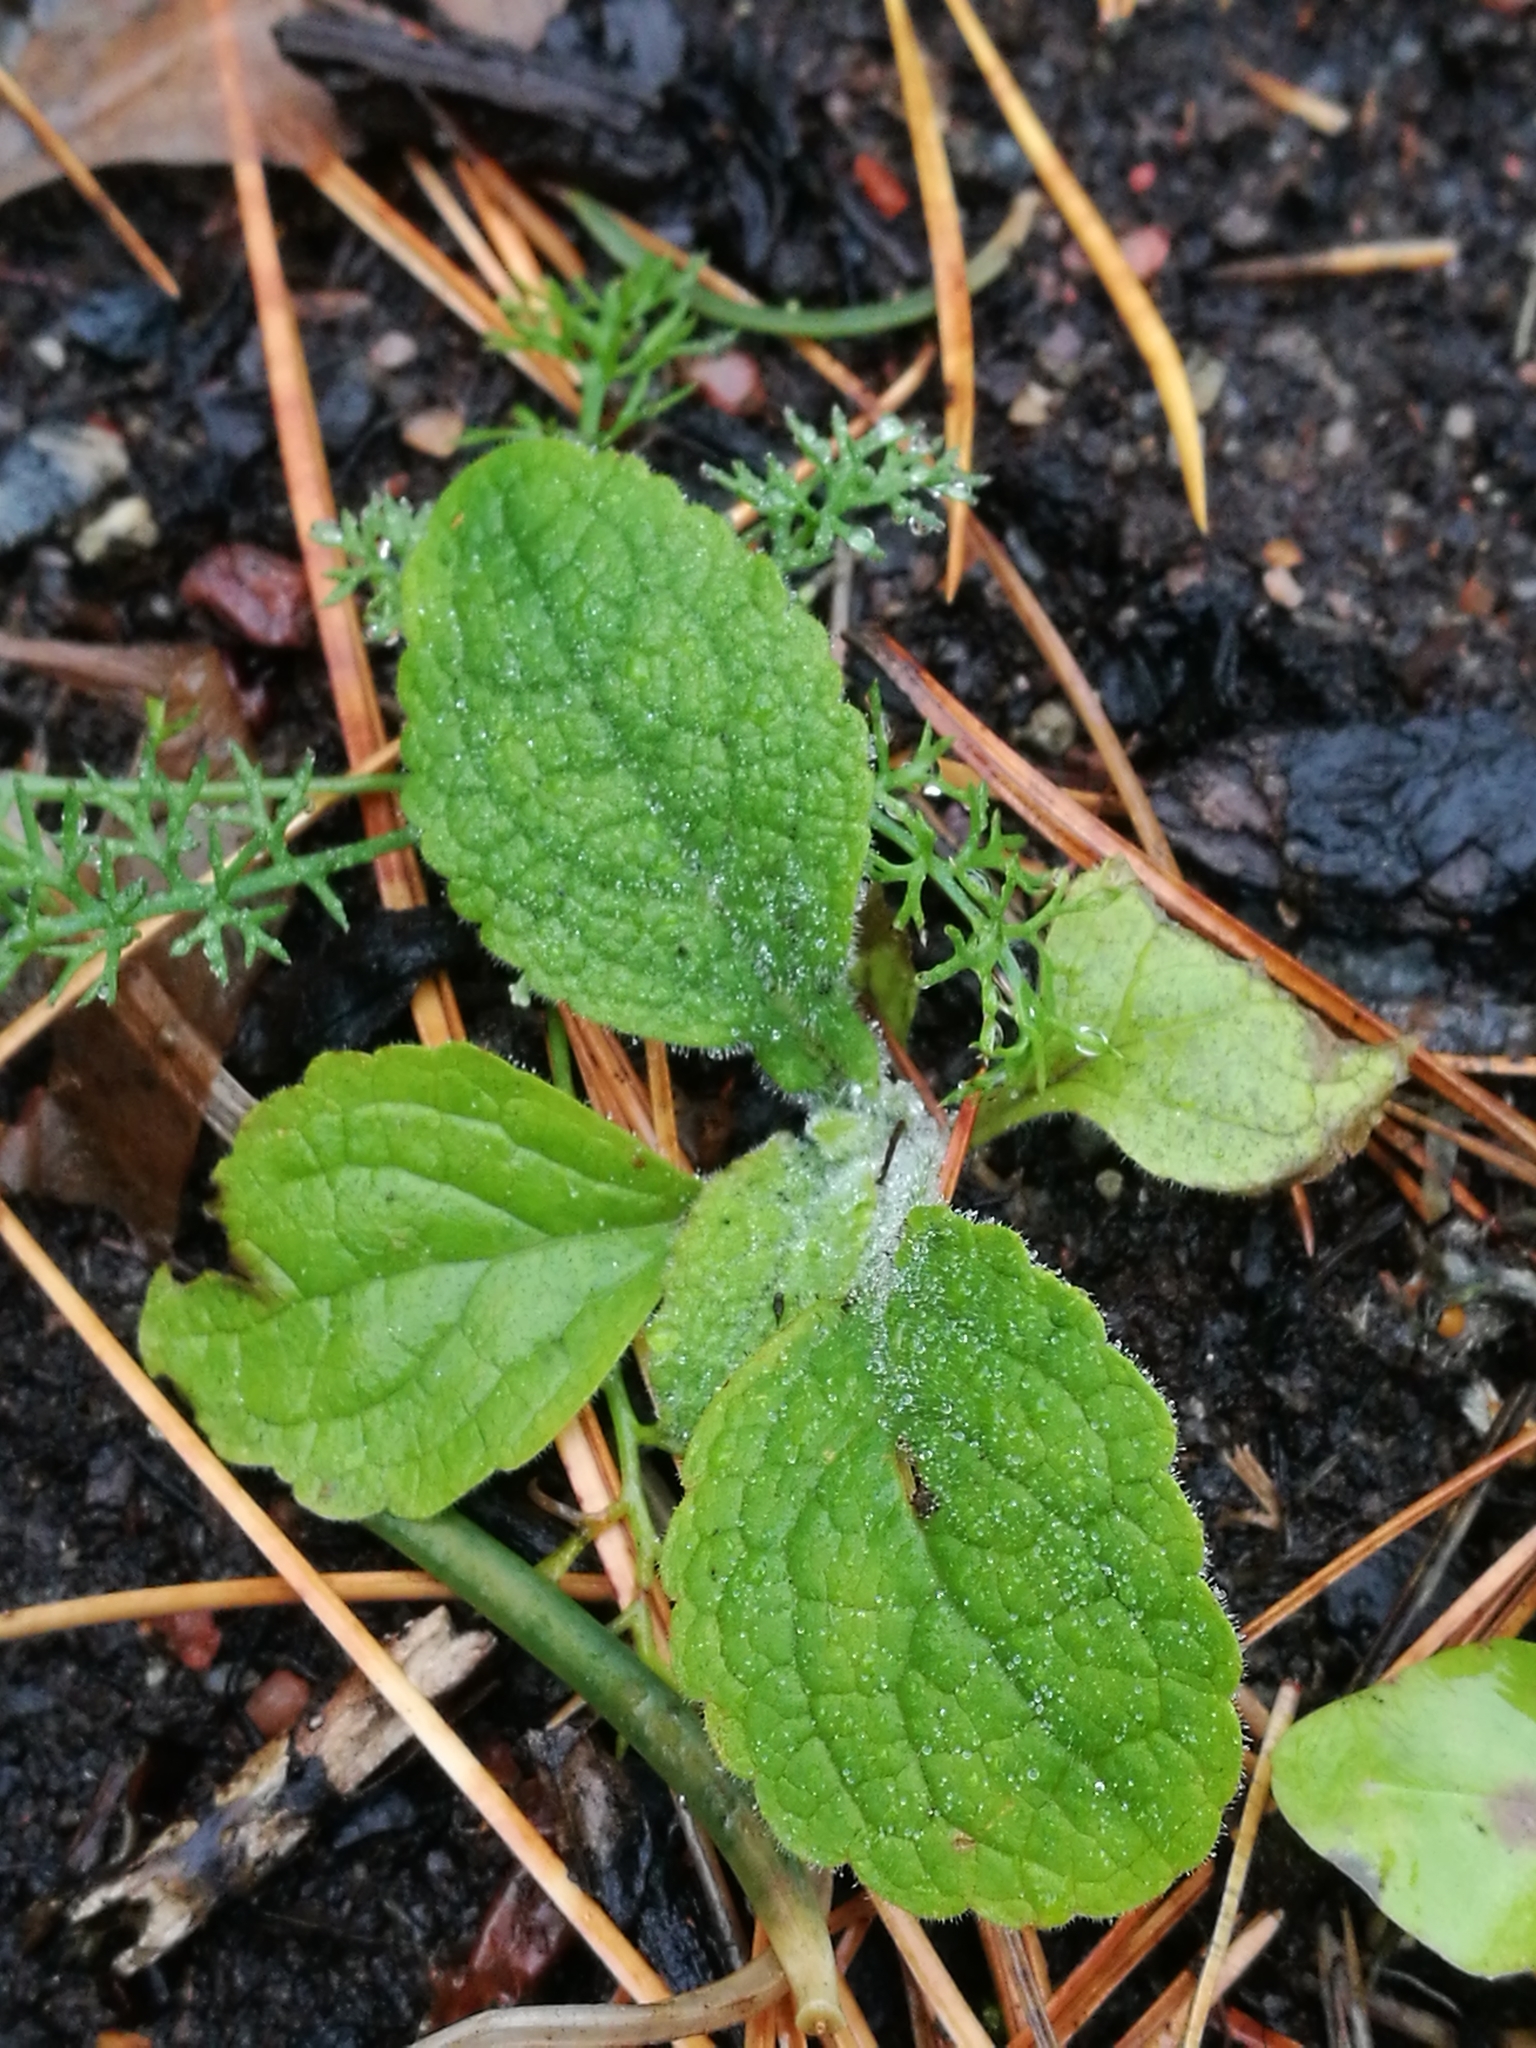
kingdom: Plantae
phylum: Tracheophyta
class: Magnoliopsida
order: Lamiales
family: Plantaginaceae
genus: Digitalis
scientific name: Digitalis purpurea
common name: Foxglove
